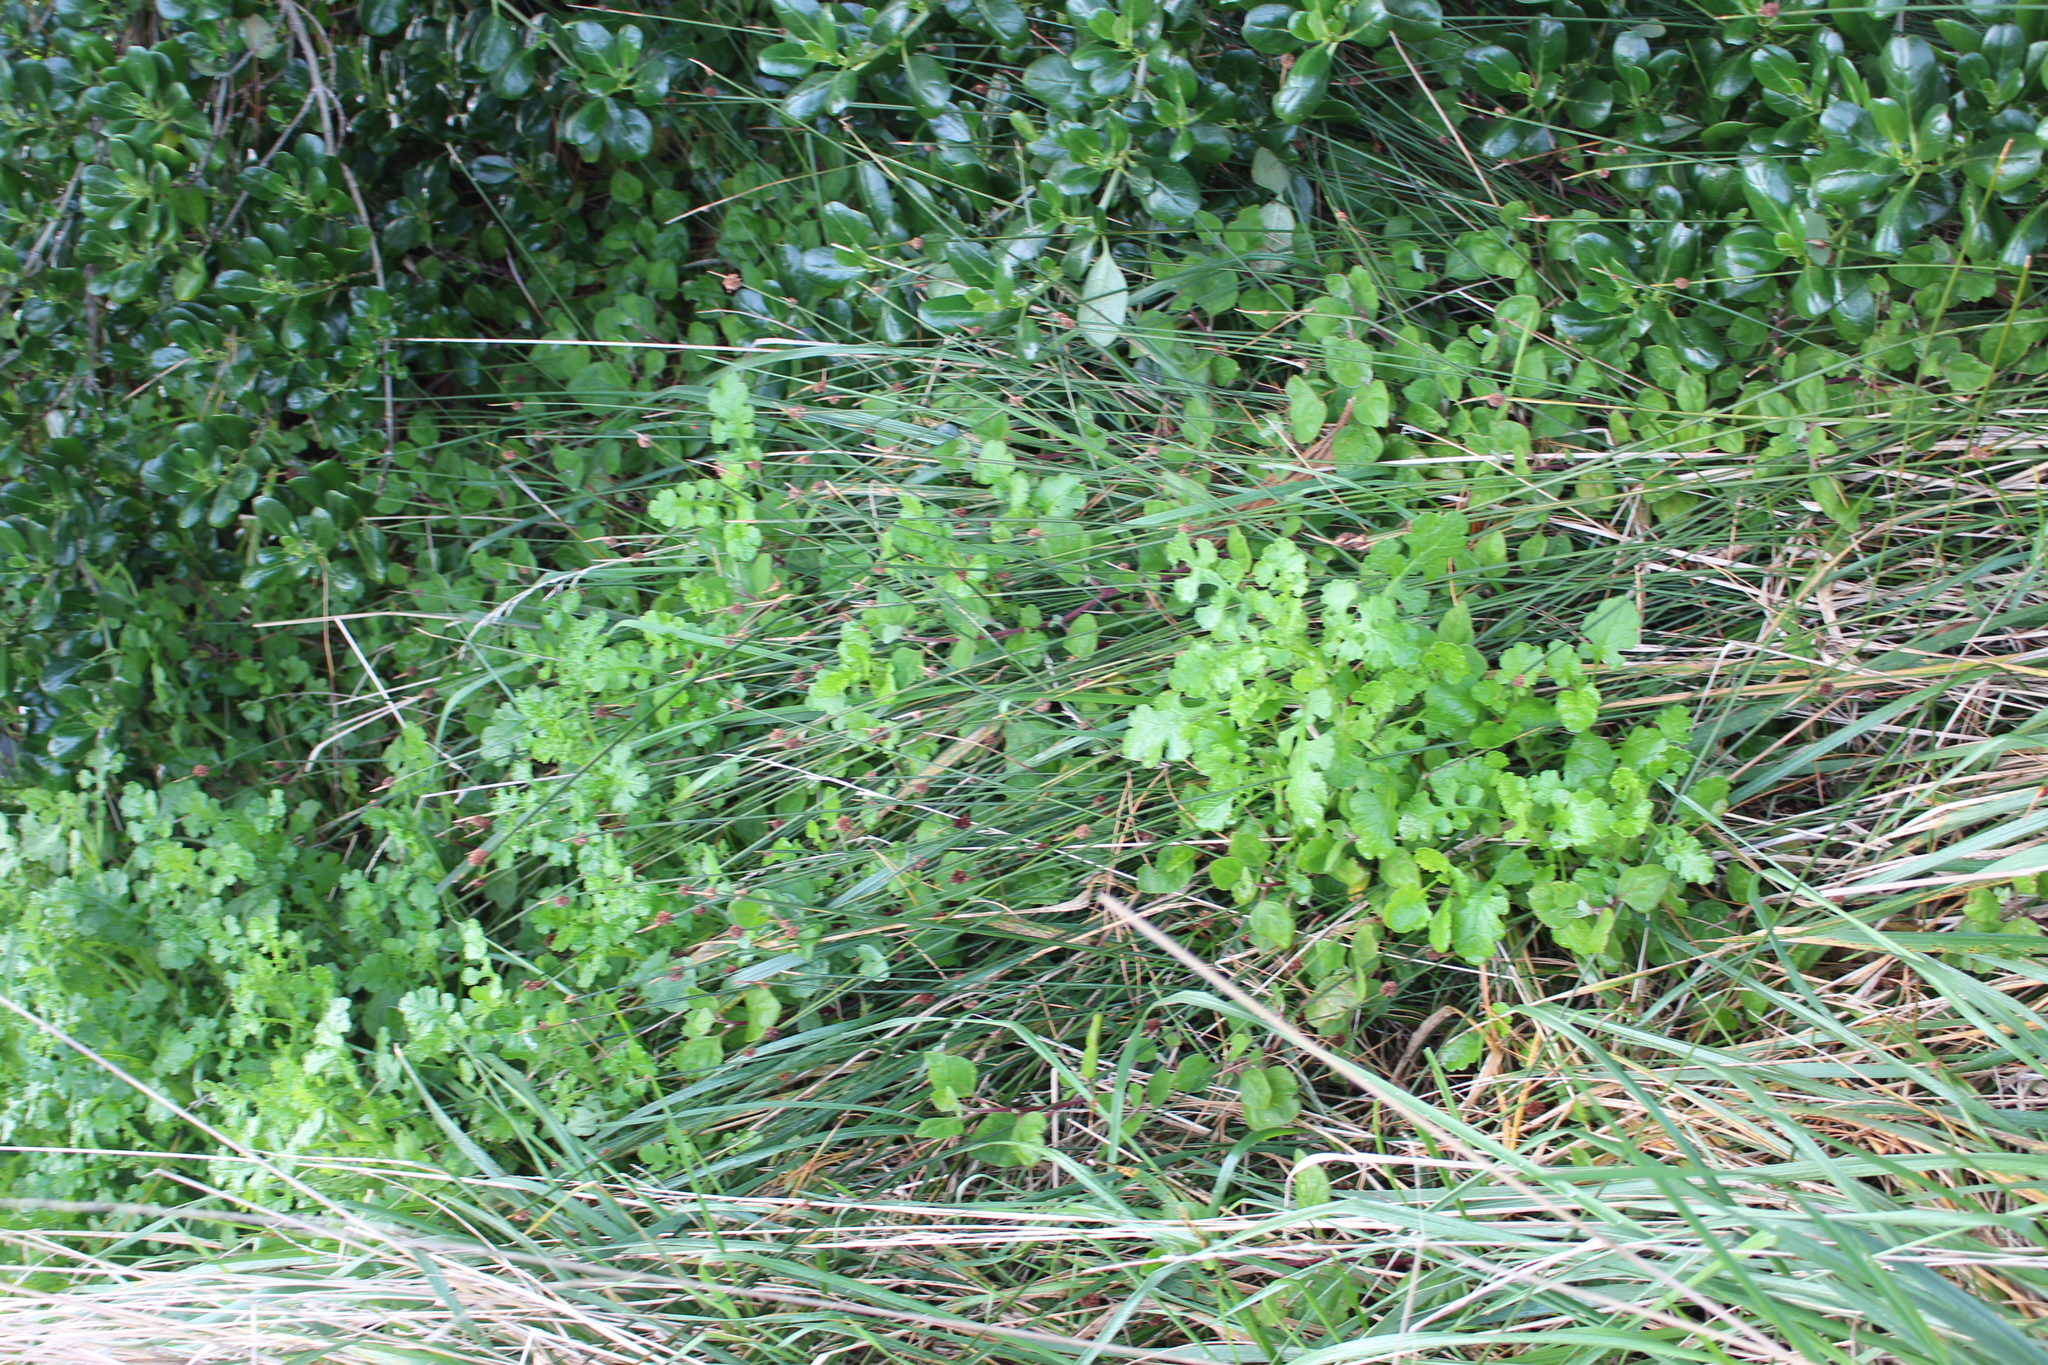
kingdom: Plantae
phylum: Tracheophyta
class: Magnoliopsida
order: Asterales
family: Asteraceae
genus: Senecio
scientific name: Senecio elegans
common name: Purple groundsel
